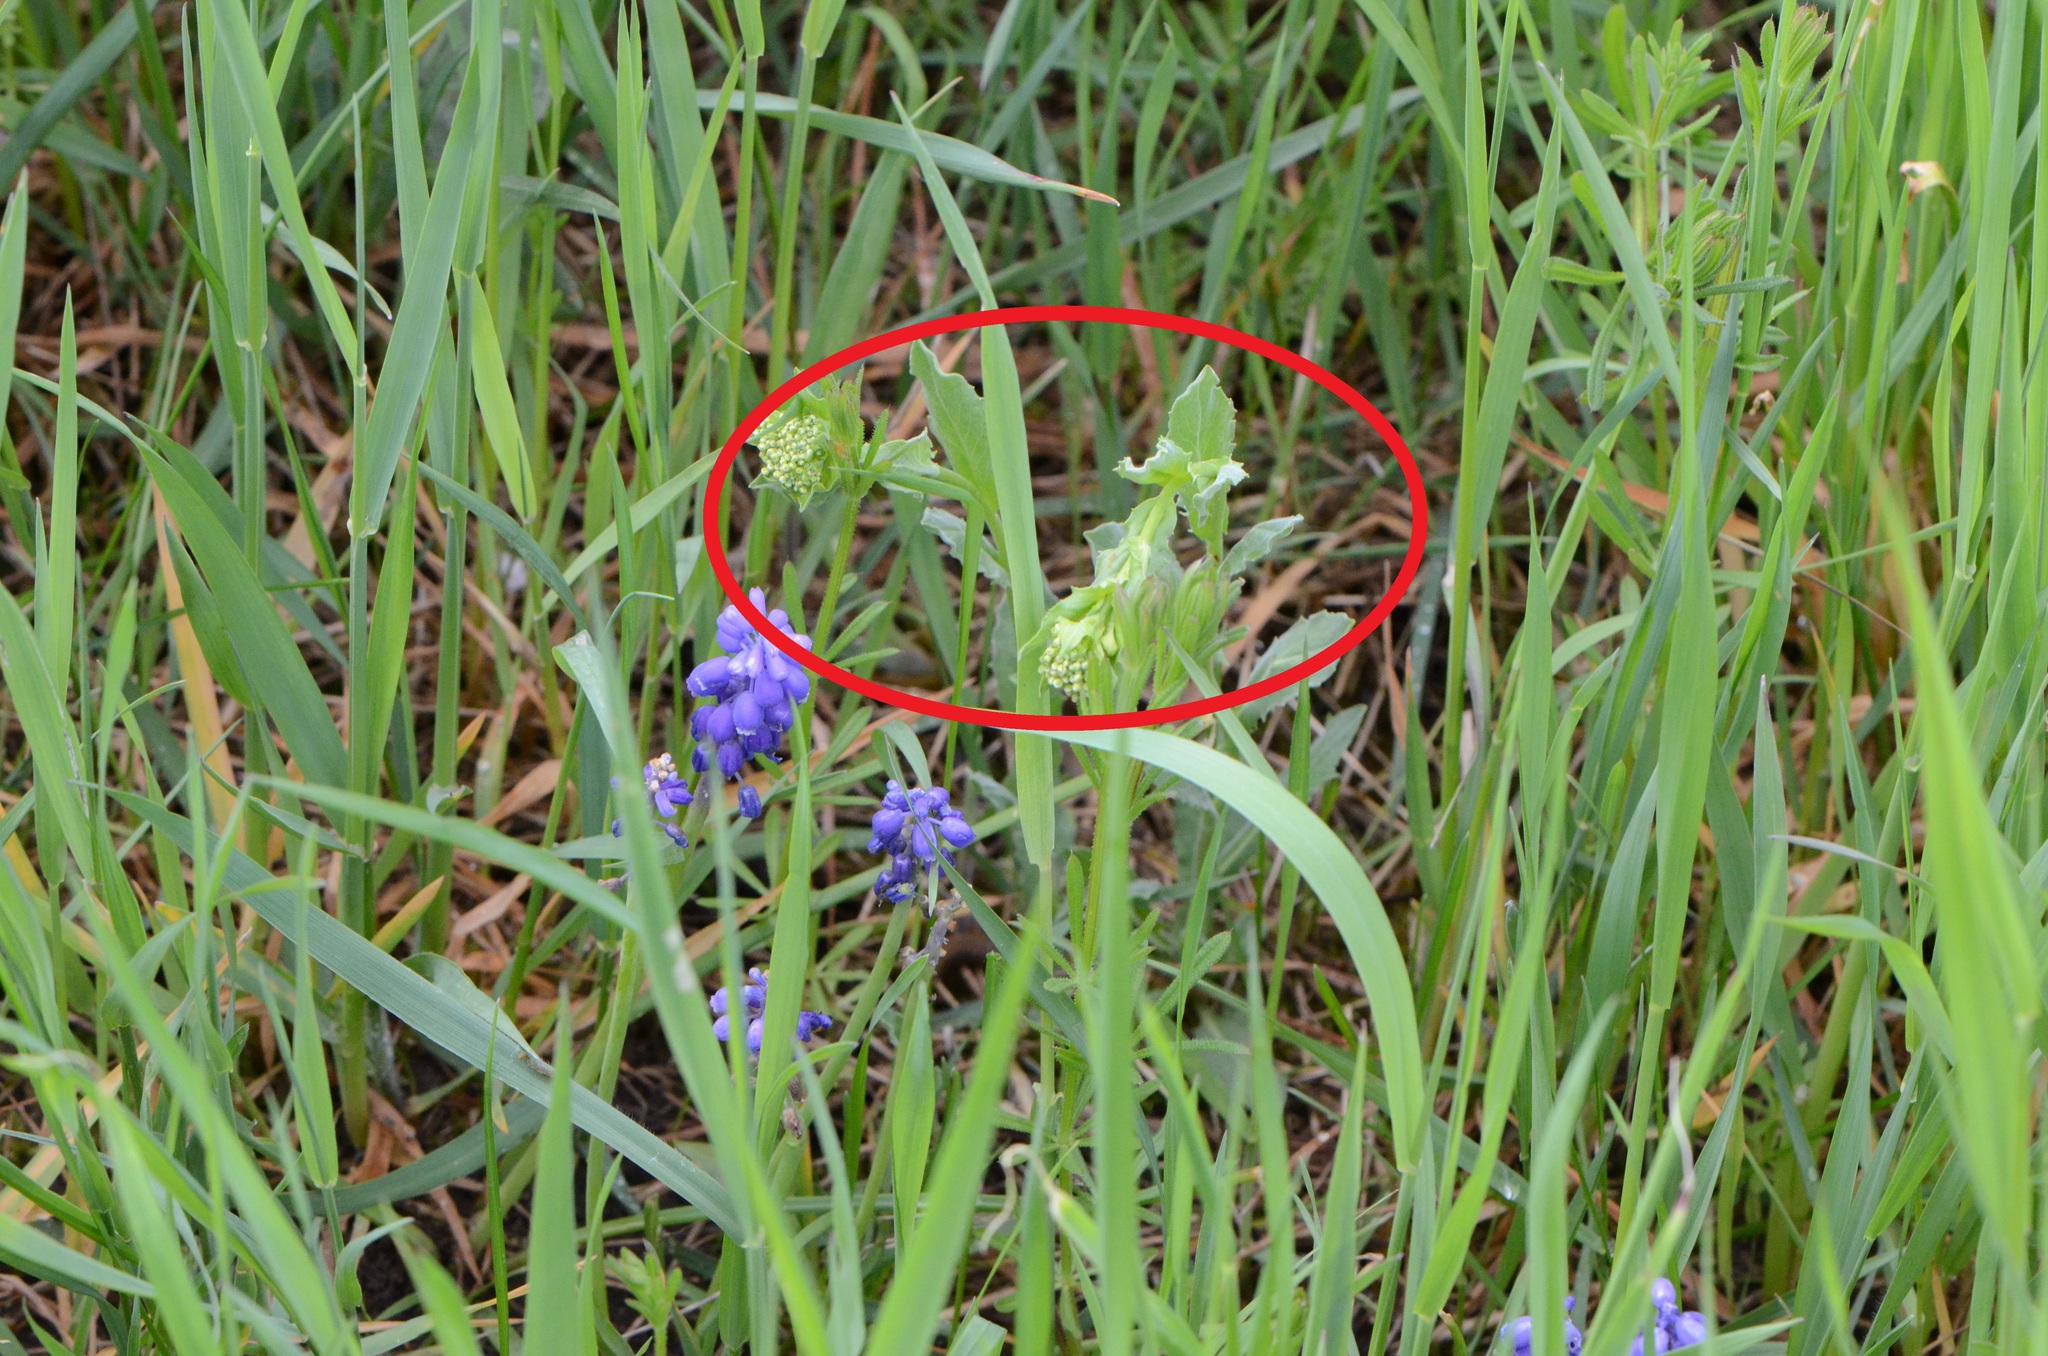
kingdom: Plantae
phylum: Tracheophyta
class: Magnoliopsida
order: Brassicales
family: Brassicaceae
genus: Lepidium
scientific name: Lepidium draba
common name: Hoary cress
